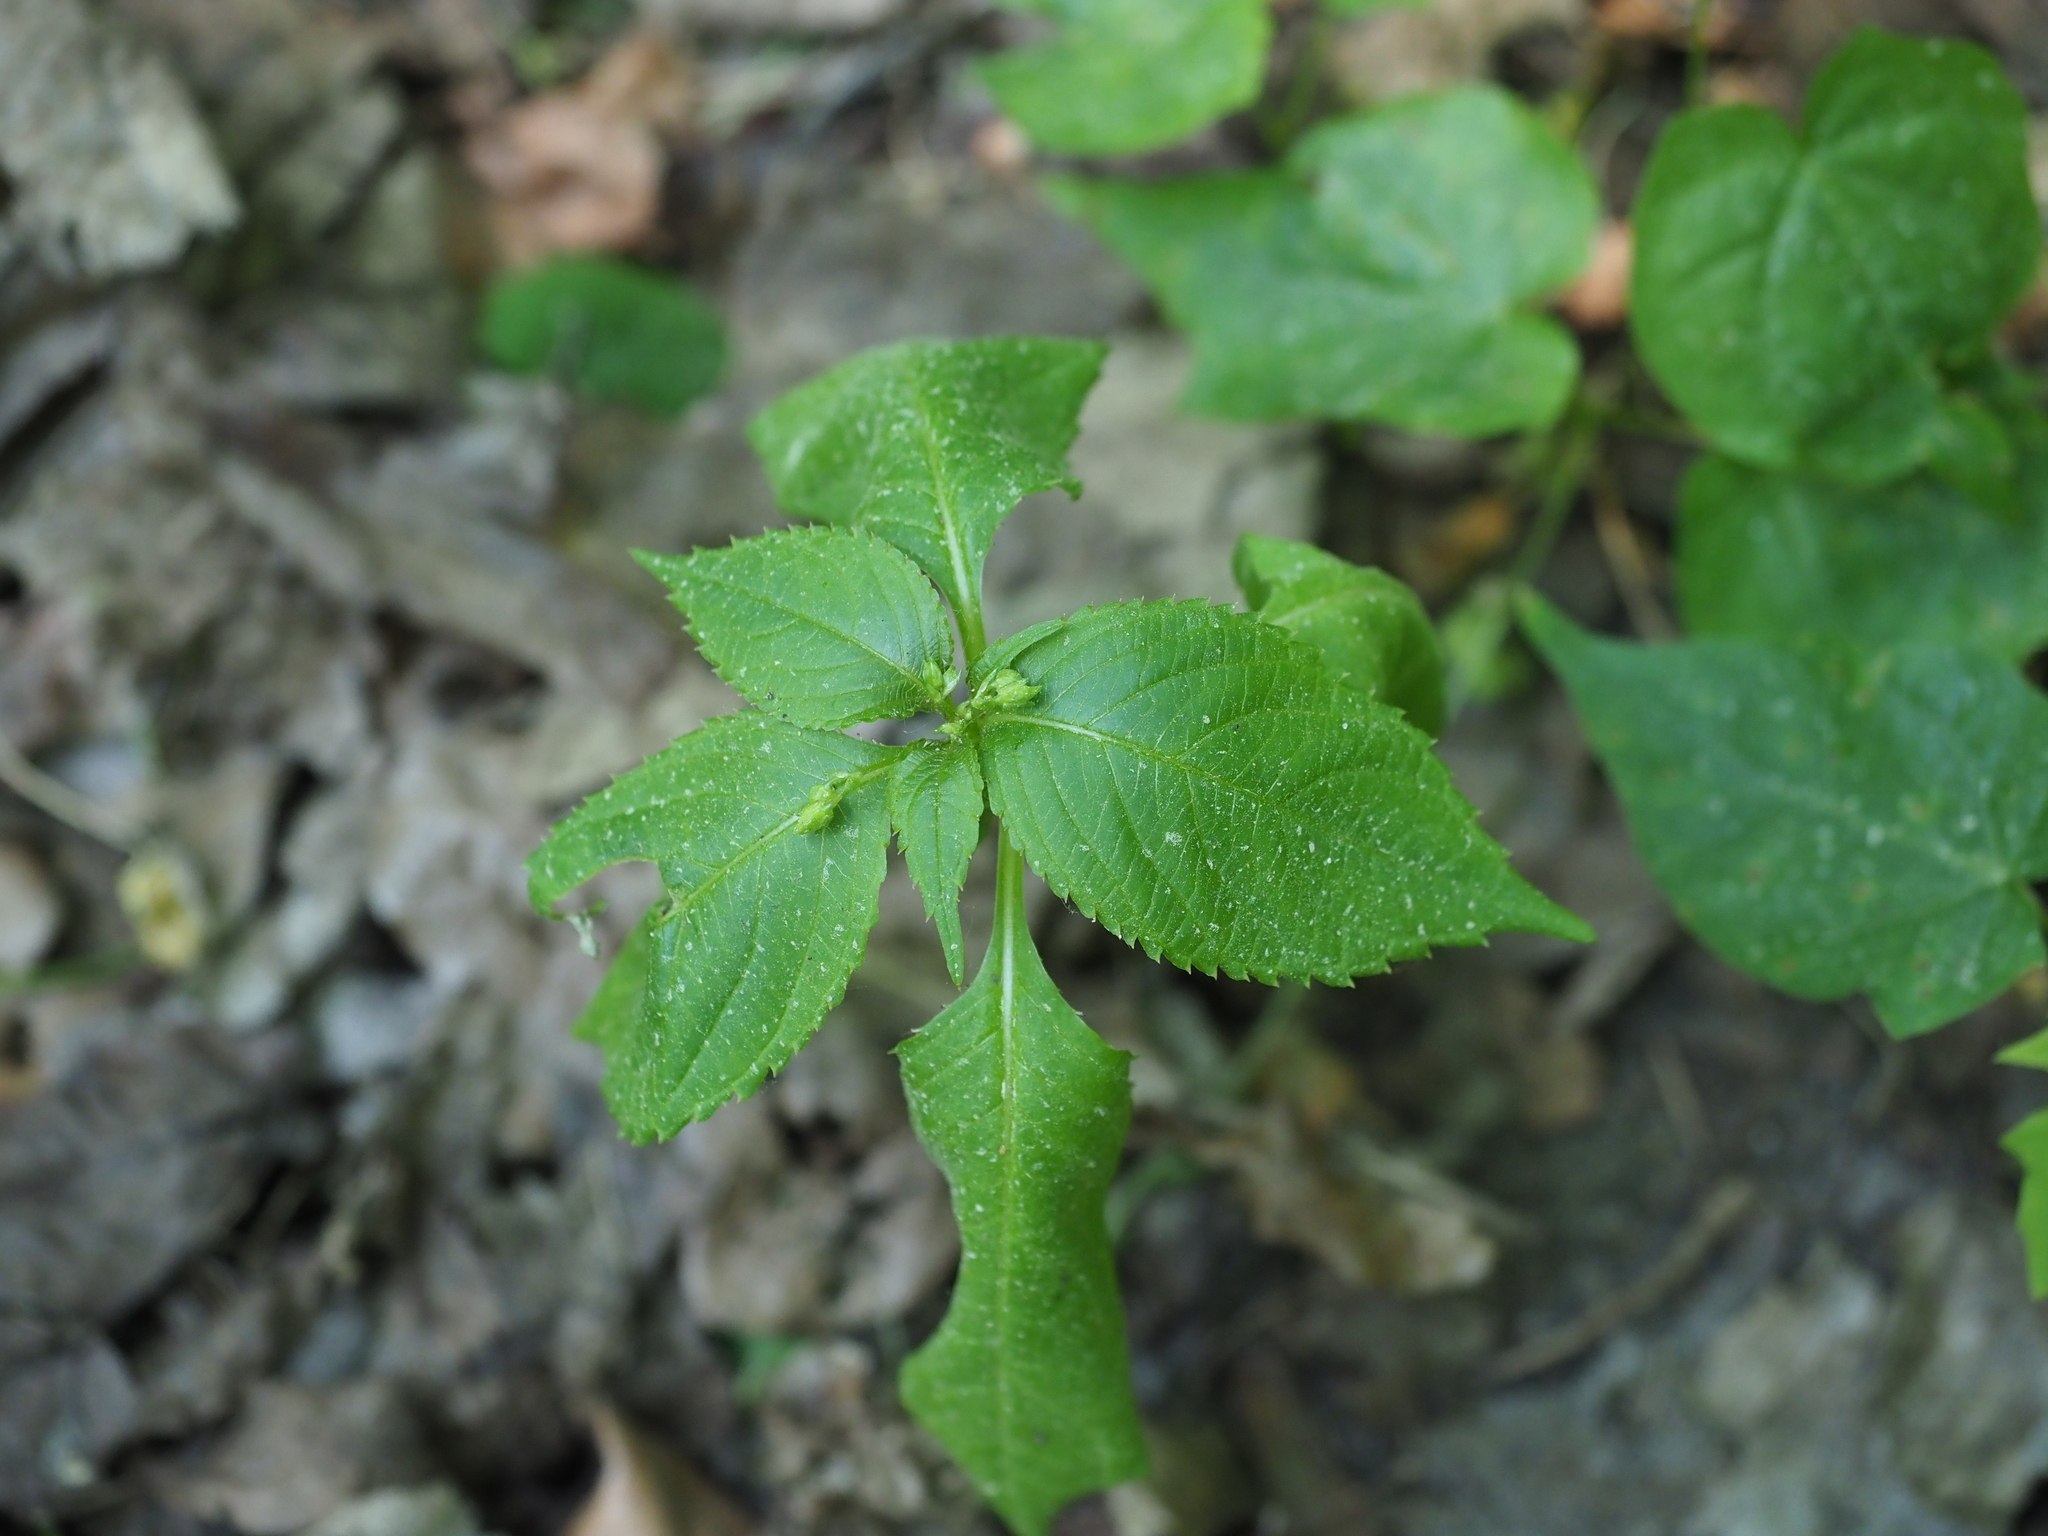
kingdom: Plantae
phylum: Tracheophyta
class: Magnoliopsida
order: Ericales
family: Balsaminaceae
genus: Impatiens
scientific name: Impatiens parviflora
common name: Small balsam
